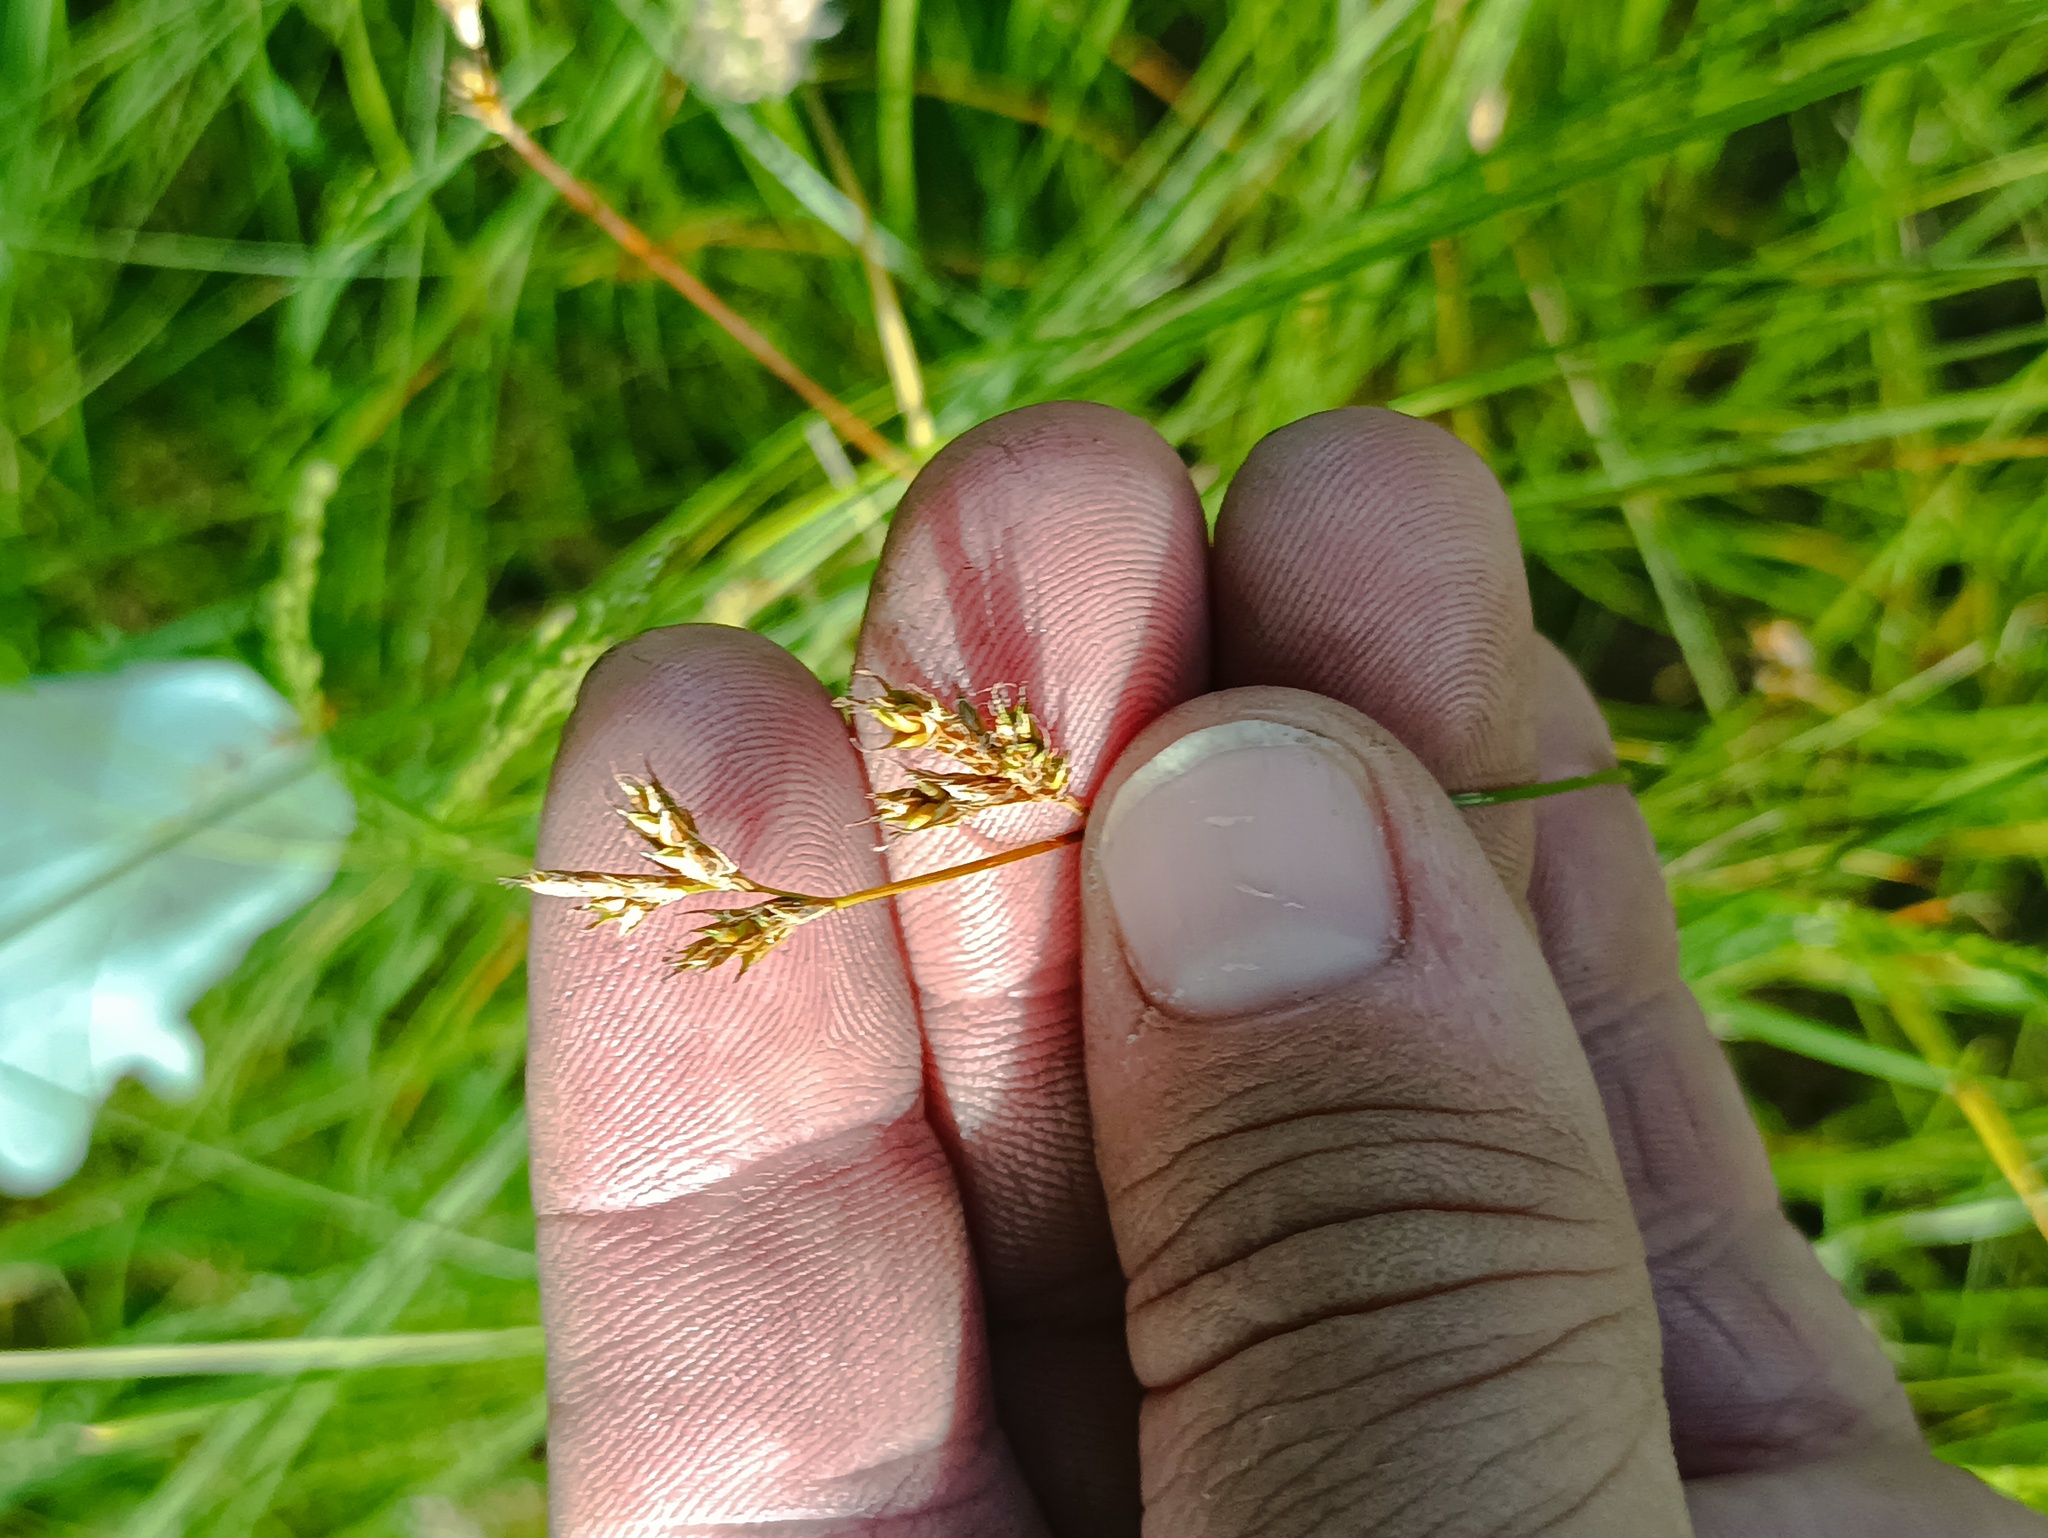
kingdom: Plantae
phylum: Tracheophyta
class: Liliopsida
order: Poales
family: Cyperaceae
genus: Carex
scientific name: Carex praecox
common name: Early sedge
